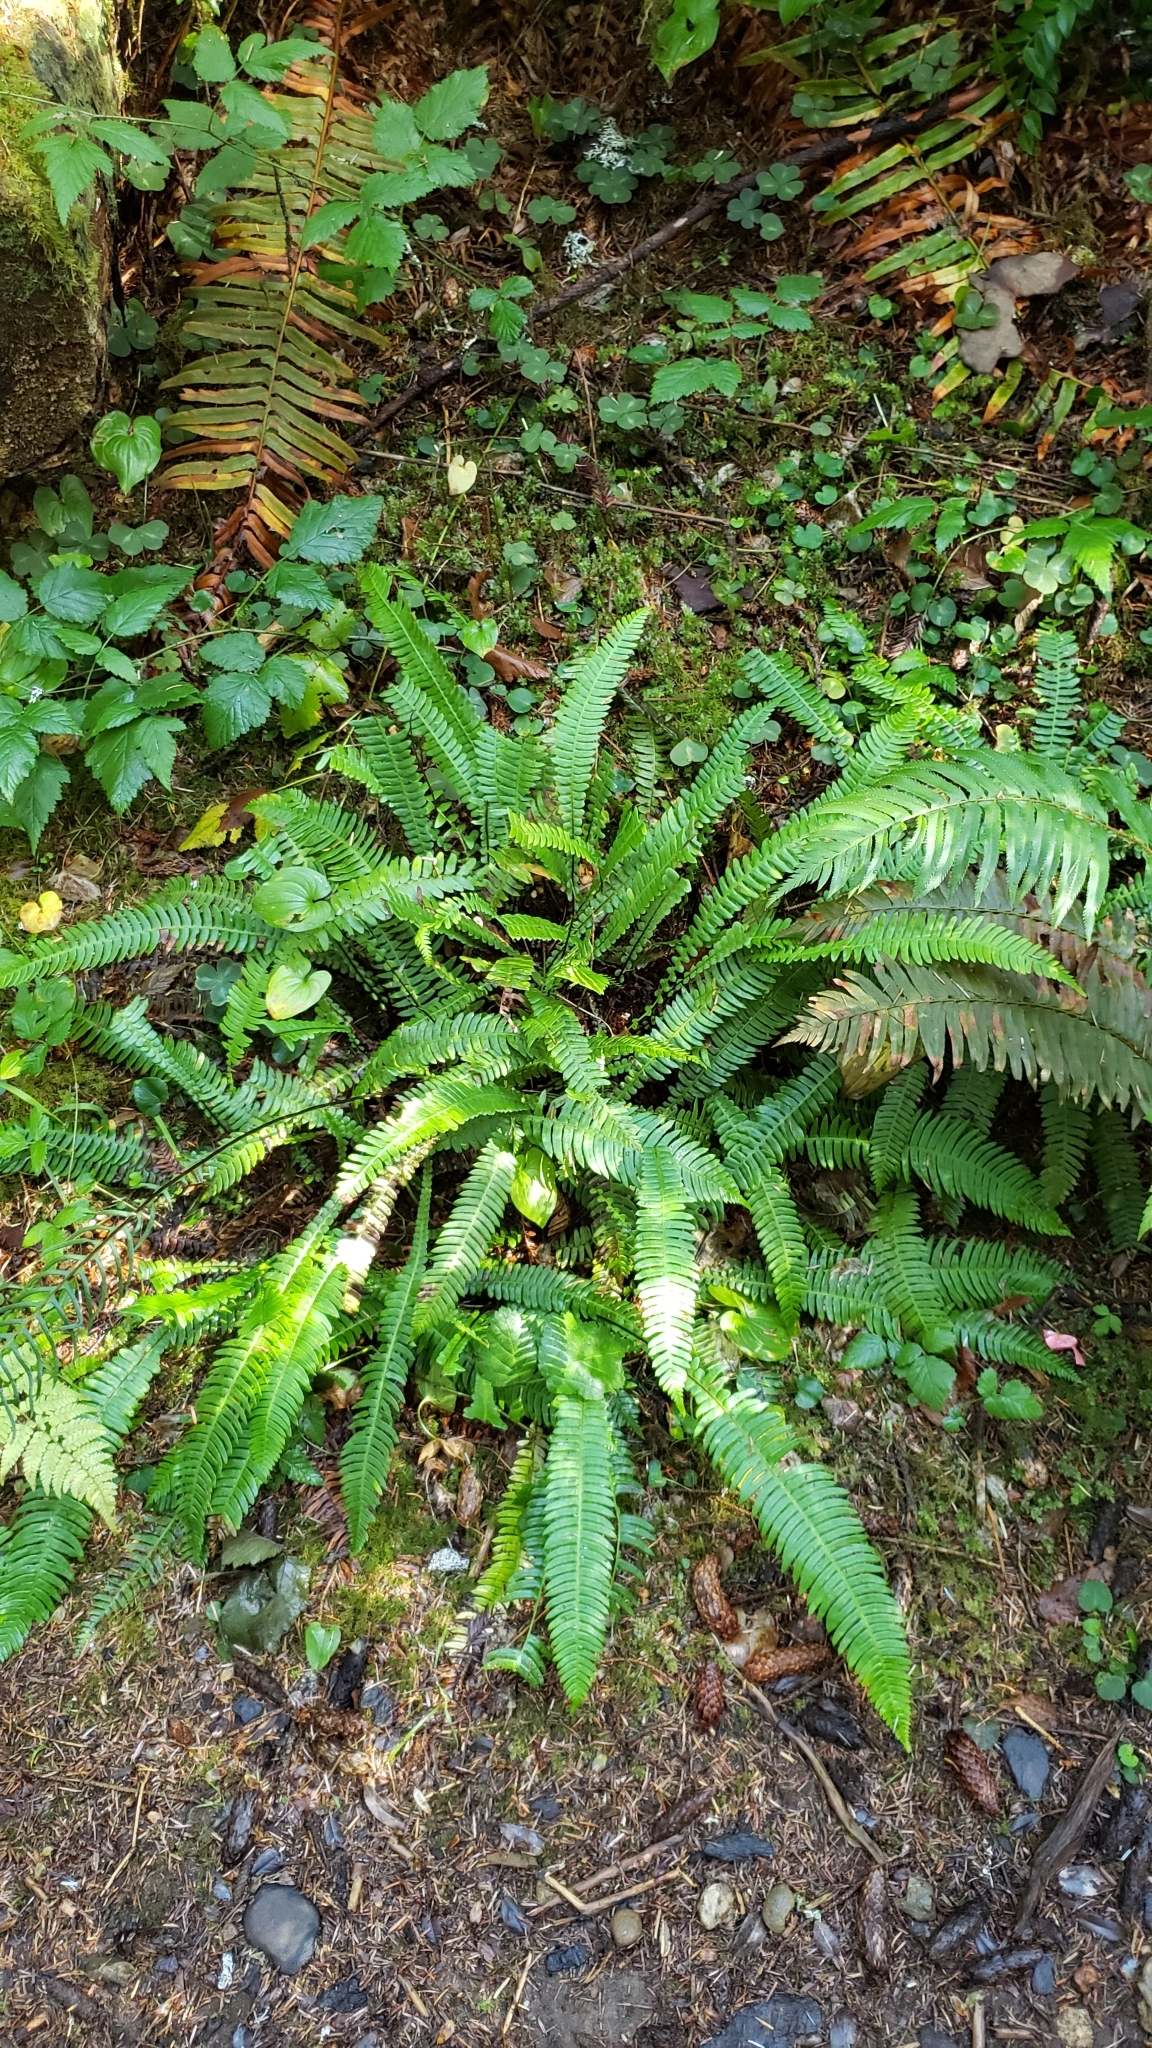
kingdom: Plantae
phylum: Tracheophyta
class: Polypodiopsida
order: Polypodiales
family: Blechnaceae
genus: Struthiopteris
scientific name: Struthiopteris spicant
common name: Deer fern
